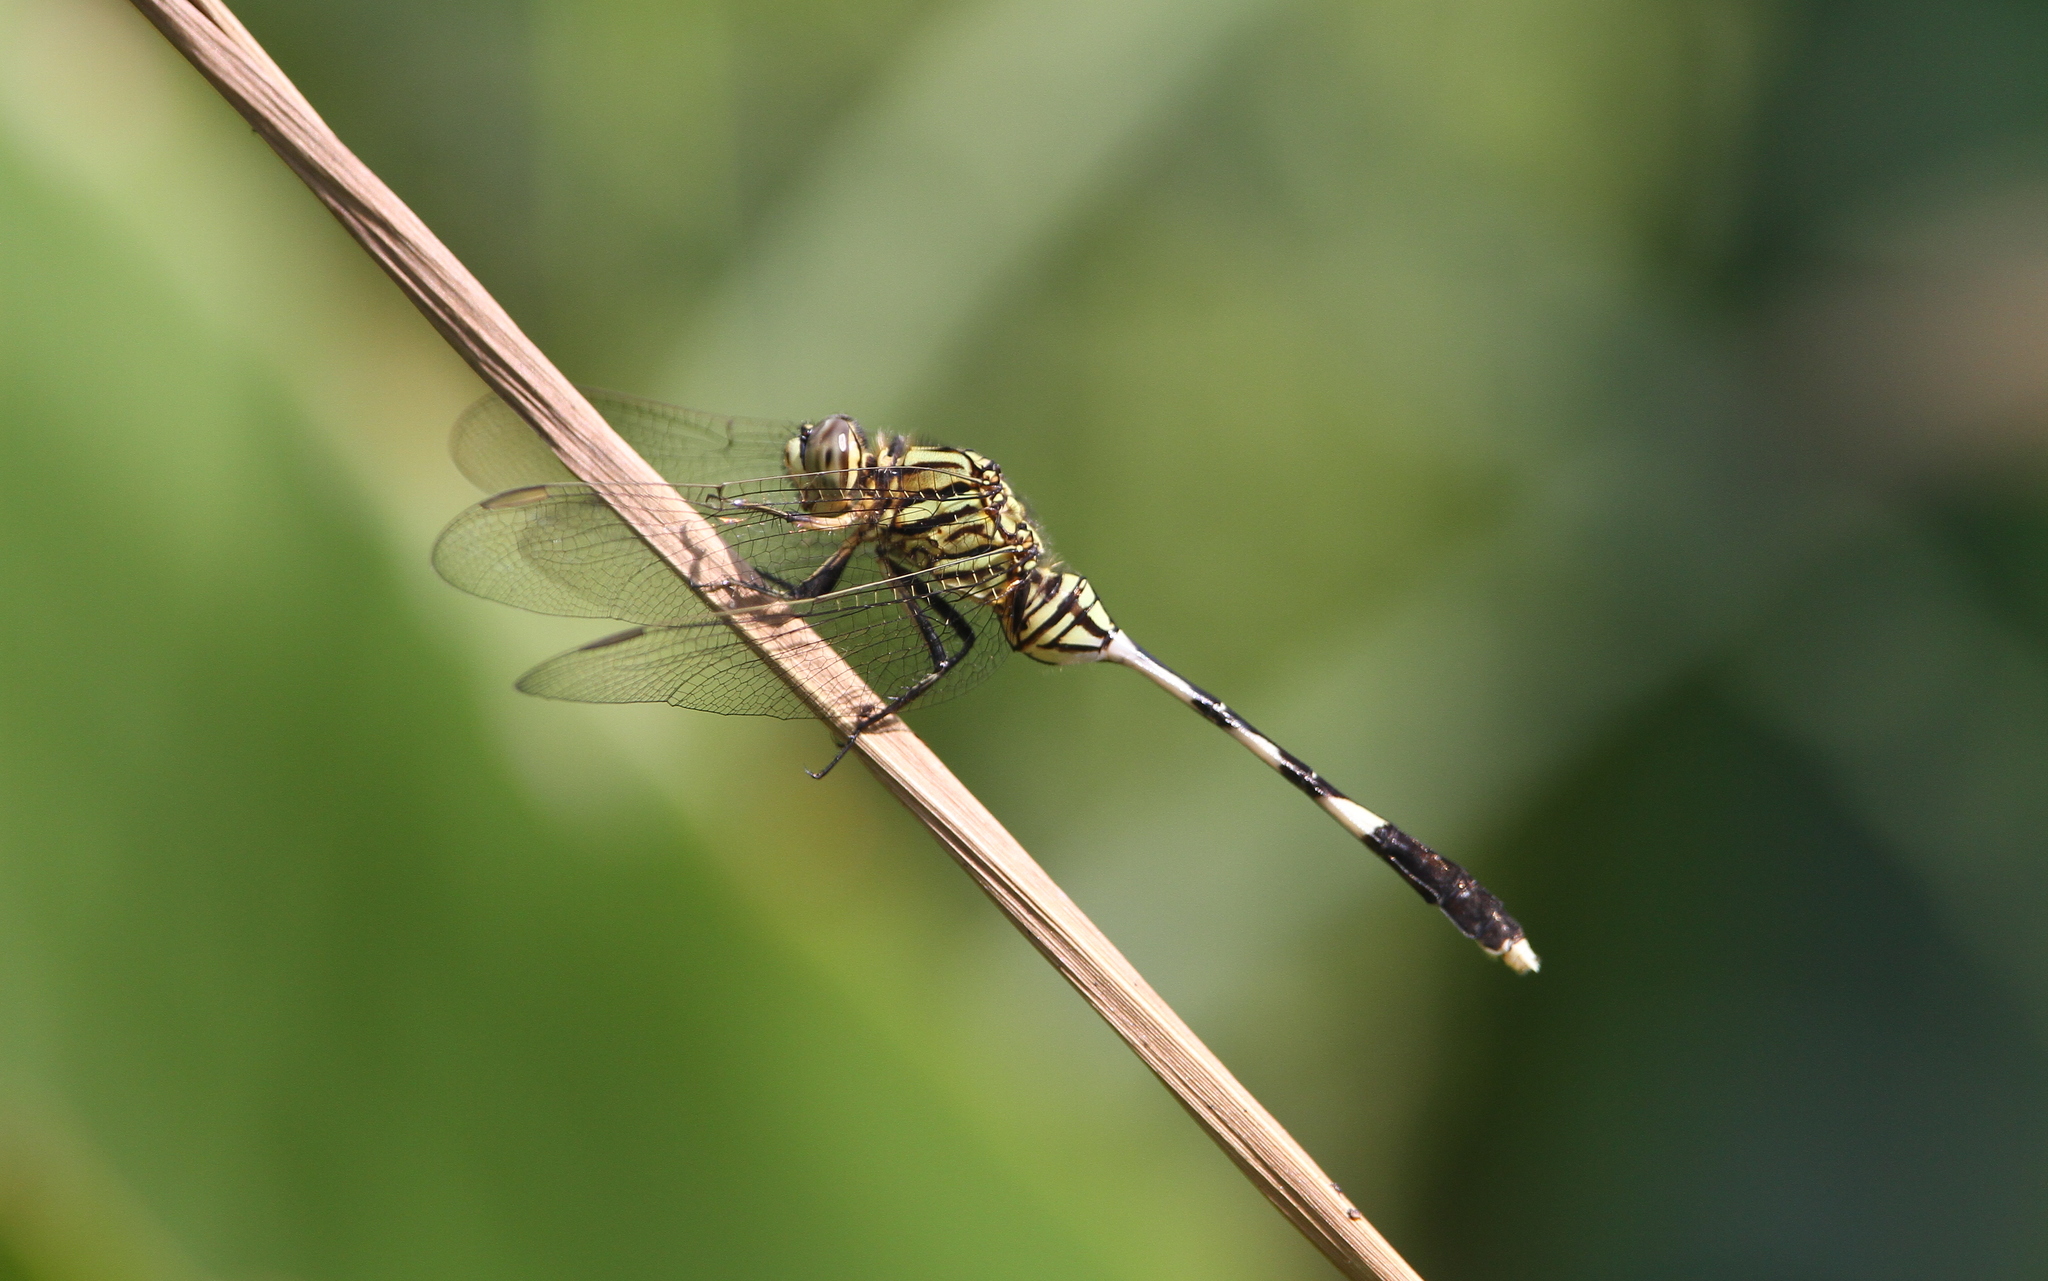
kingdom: Animalia
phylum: Arthropoda
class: Insecta
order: Odonata
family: Libellulidae
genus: Orthetrum
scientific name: Orthetrum sabina
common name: Slender skimmer
